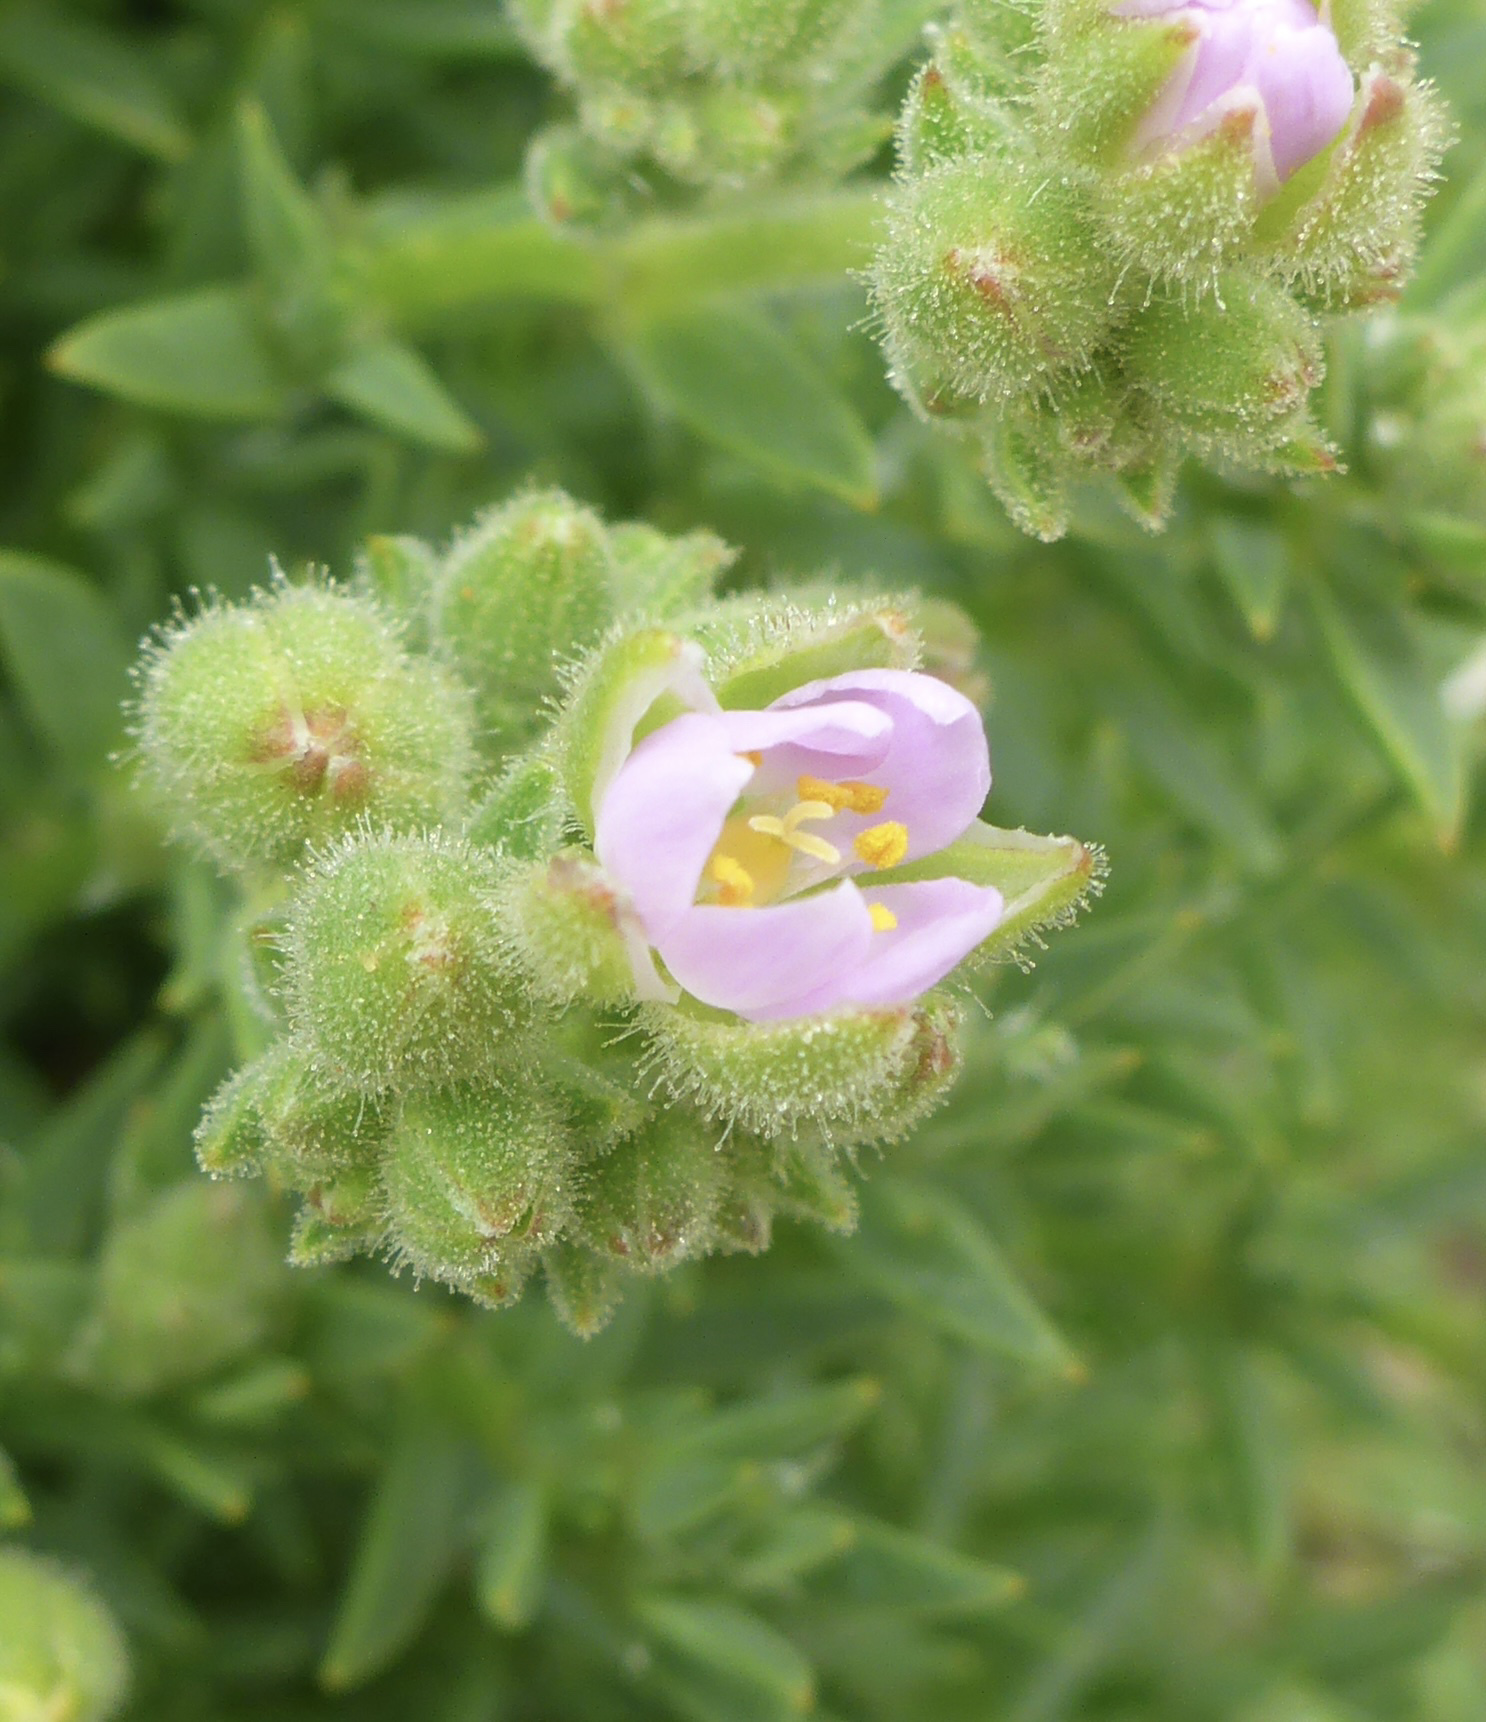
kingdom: Plantae
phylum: Tracheophyta
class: Magnoliopsida
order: Caryophyllales
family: Caryophyllaceae
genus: Spergularia
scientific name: Spergularia macrotheca
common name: Beach sand-spurrey
